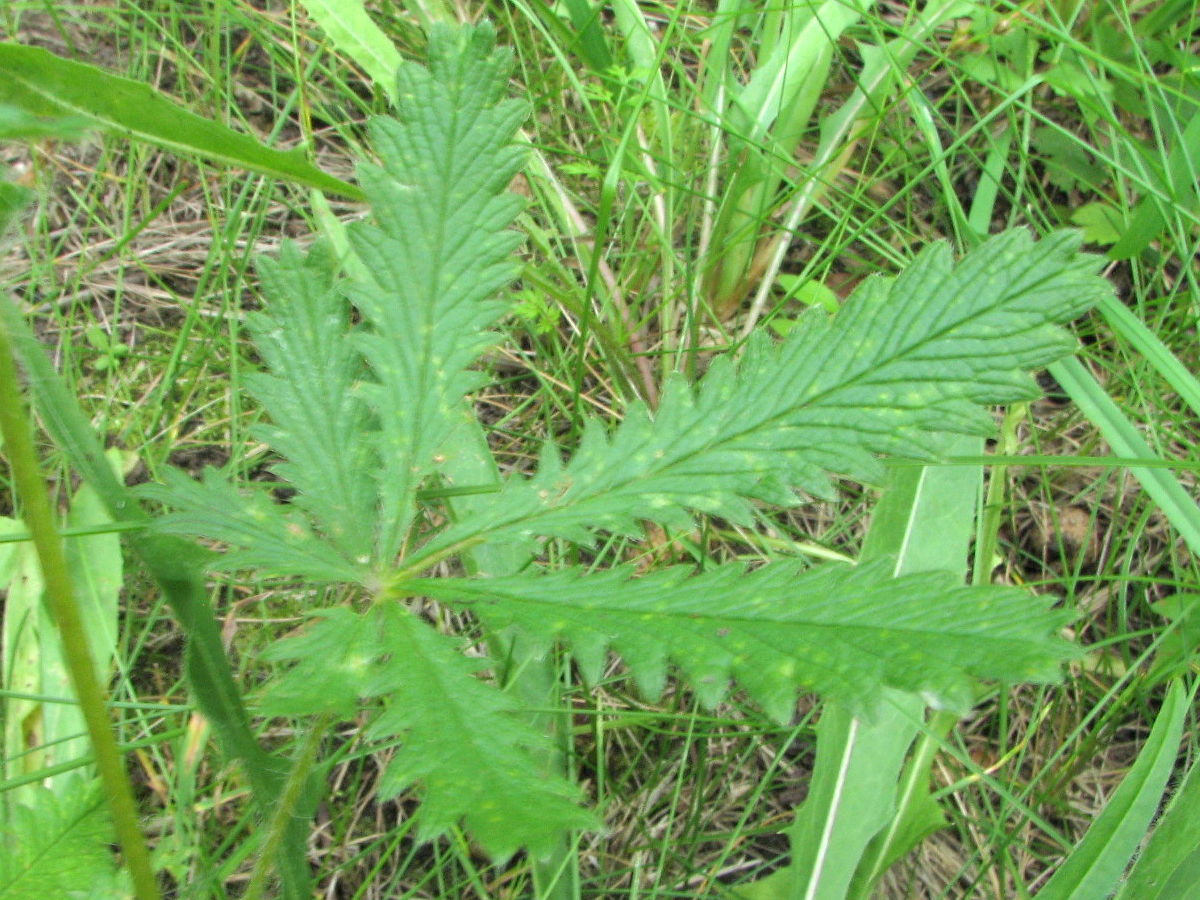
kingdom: Plantae
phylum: Tracheophyta
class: Magnoliopsida
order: Rosales
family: Rosaceae
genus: Potentilla
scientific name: Potentilla recta
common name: Sulphur cinquefoil
